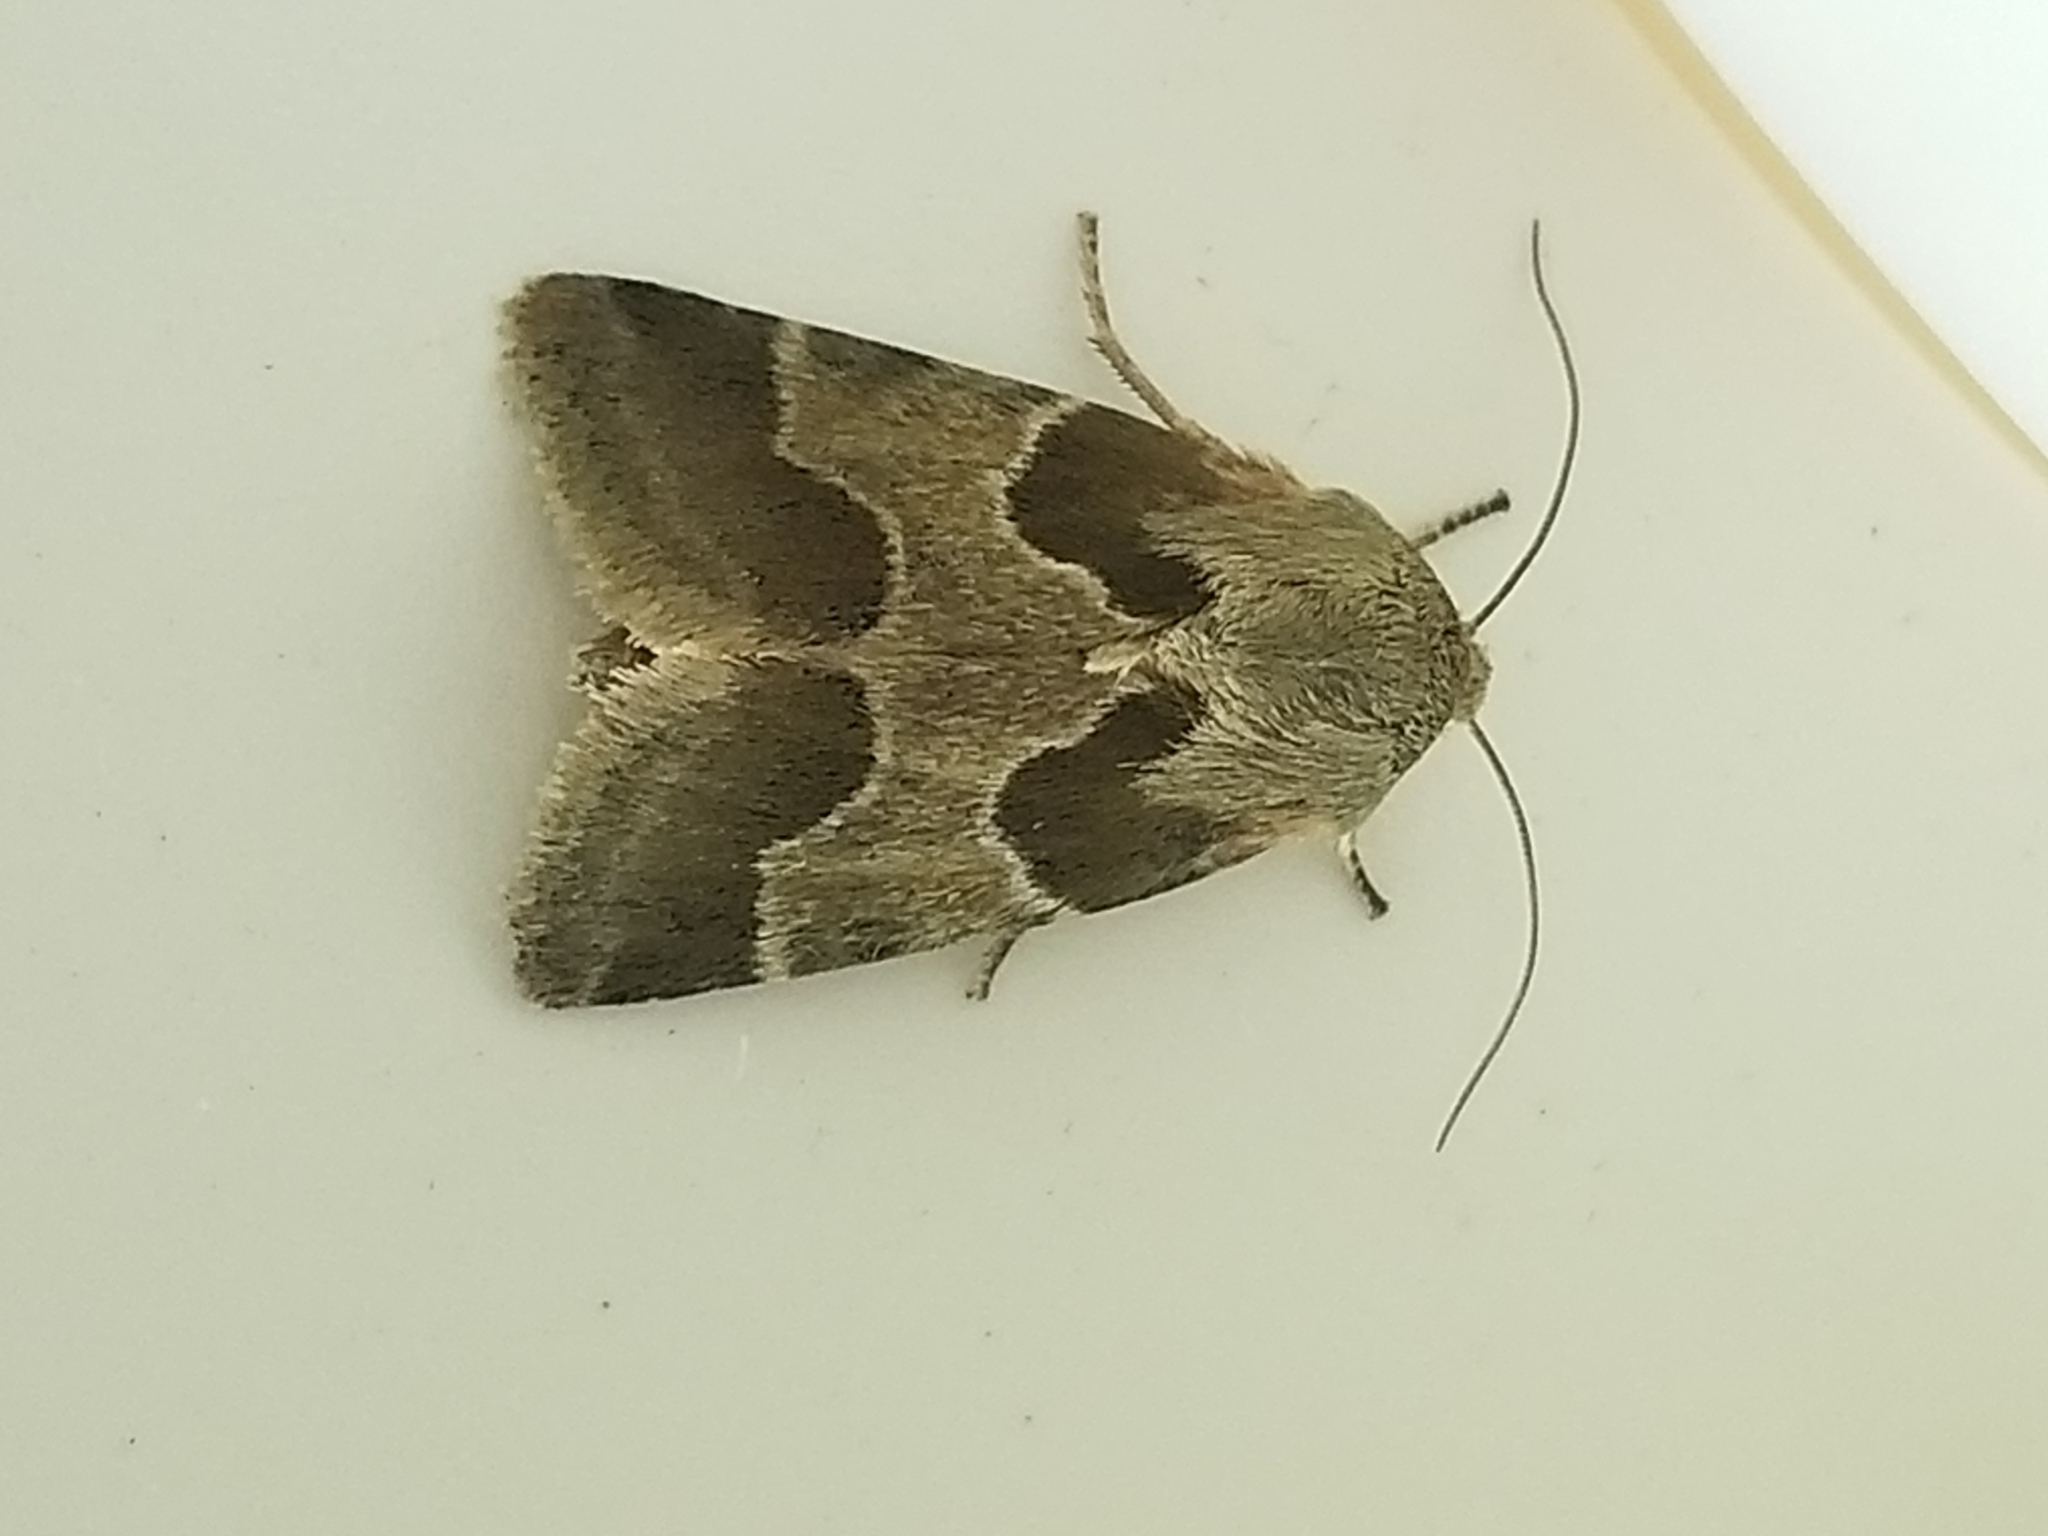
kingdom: Animalia
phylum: Arthropoda
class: Insecta
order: Lepidoptera
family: Noctuidae
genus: Schinia
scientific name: Schinia rivulosa
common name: Scarce meal-moth
